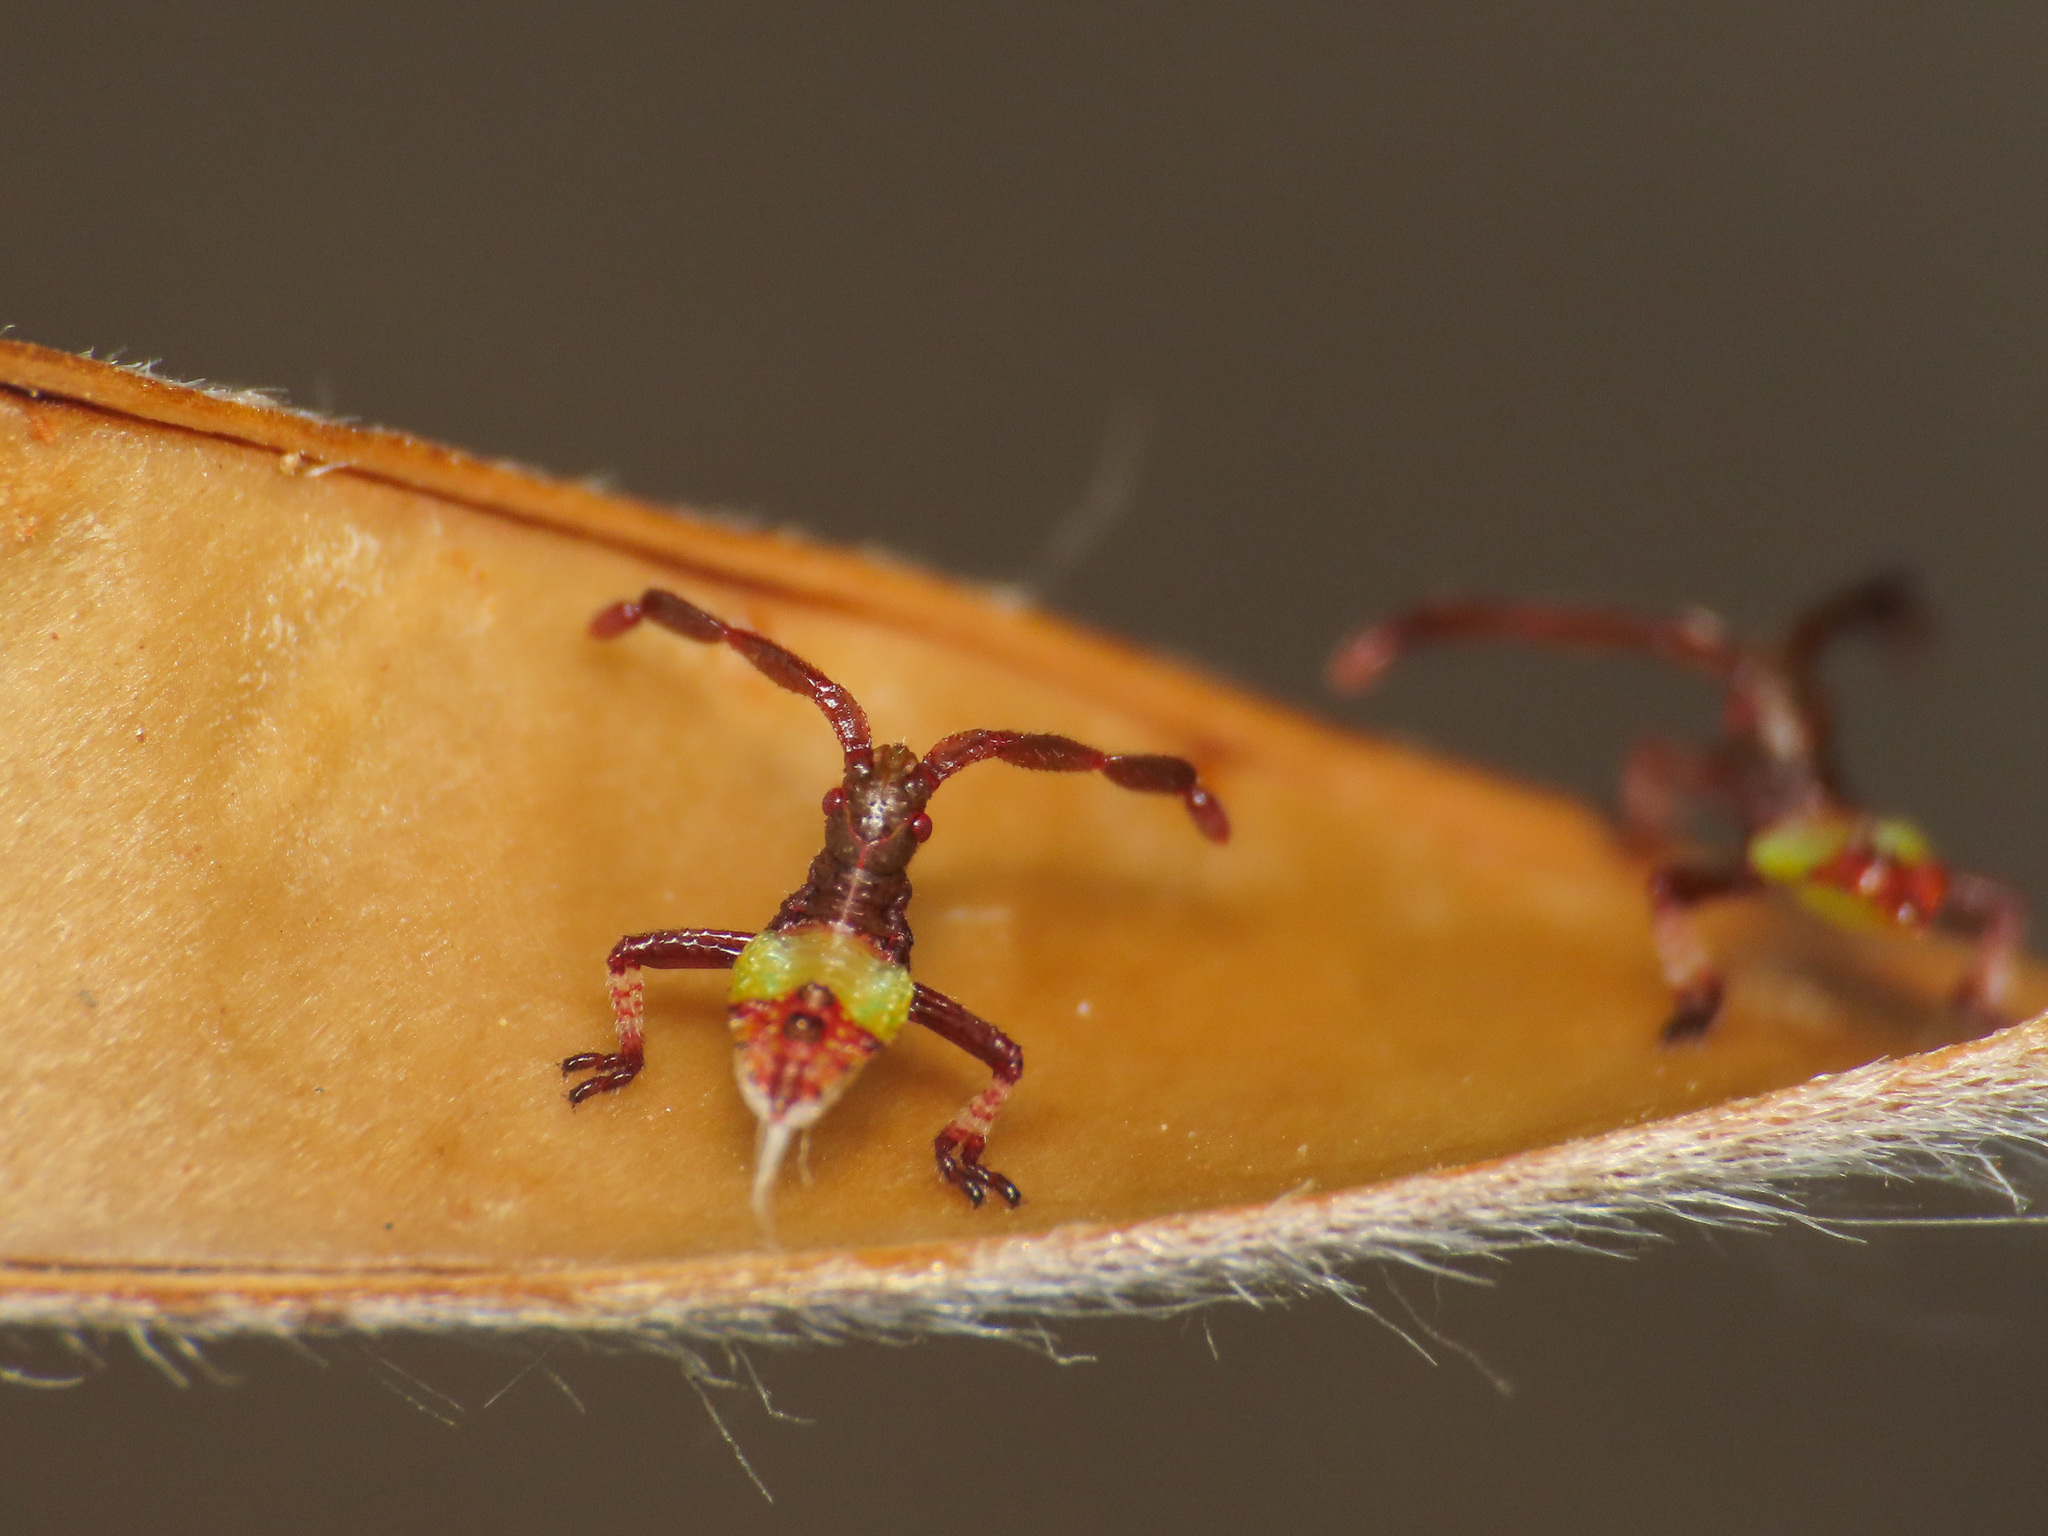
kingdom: Animalia
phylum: Arthropoda
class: Insecta
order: Hemiptera
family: Coreidae
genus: Gonocerus
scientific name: Gonocerus acuteangulatus
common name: Box bug
